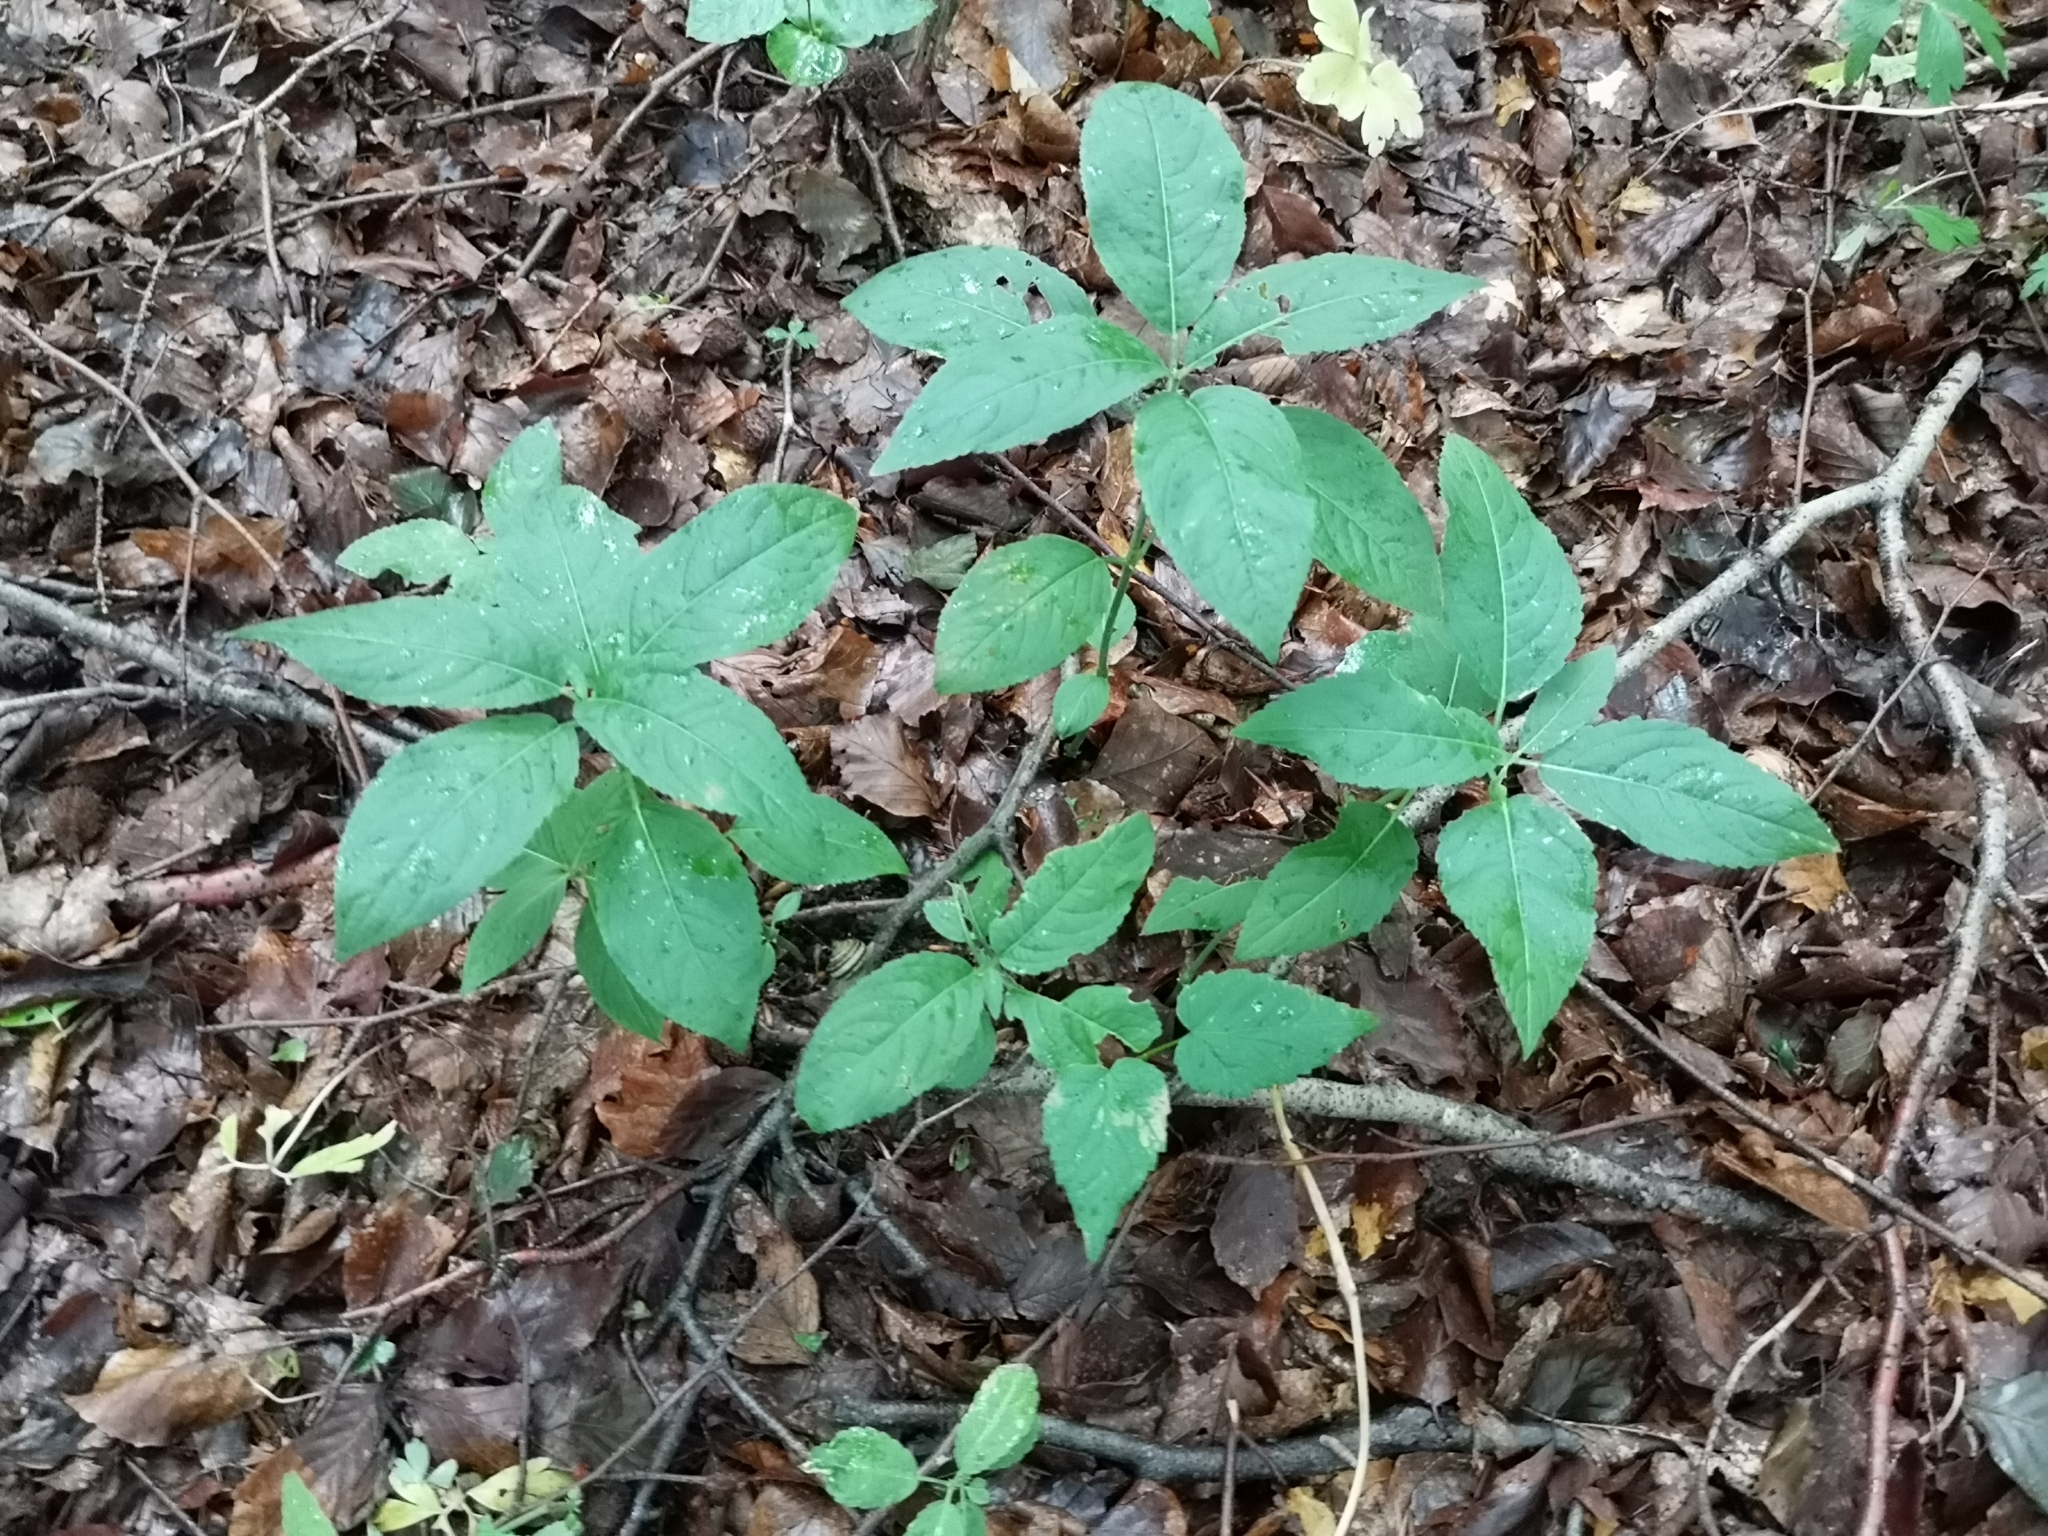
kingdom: Plantae
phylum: Tracheophyta
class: Magnoliopsida
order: Malpighiales
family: Euphorbiaceae
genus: Mercurialis
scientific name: Mercurialis perennis
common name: Dog mercury
